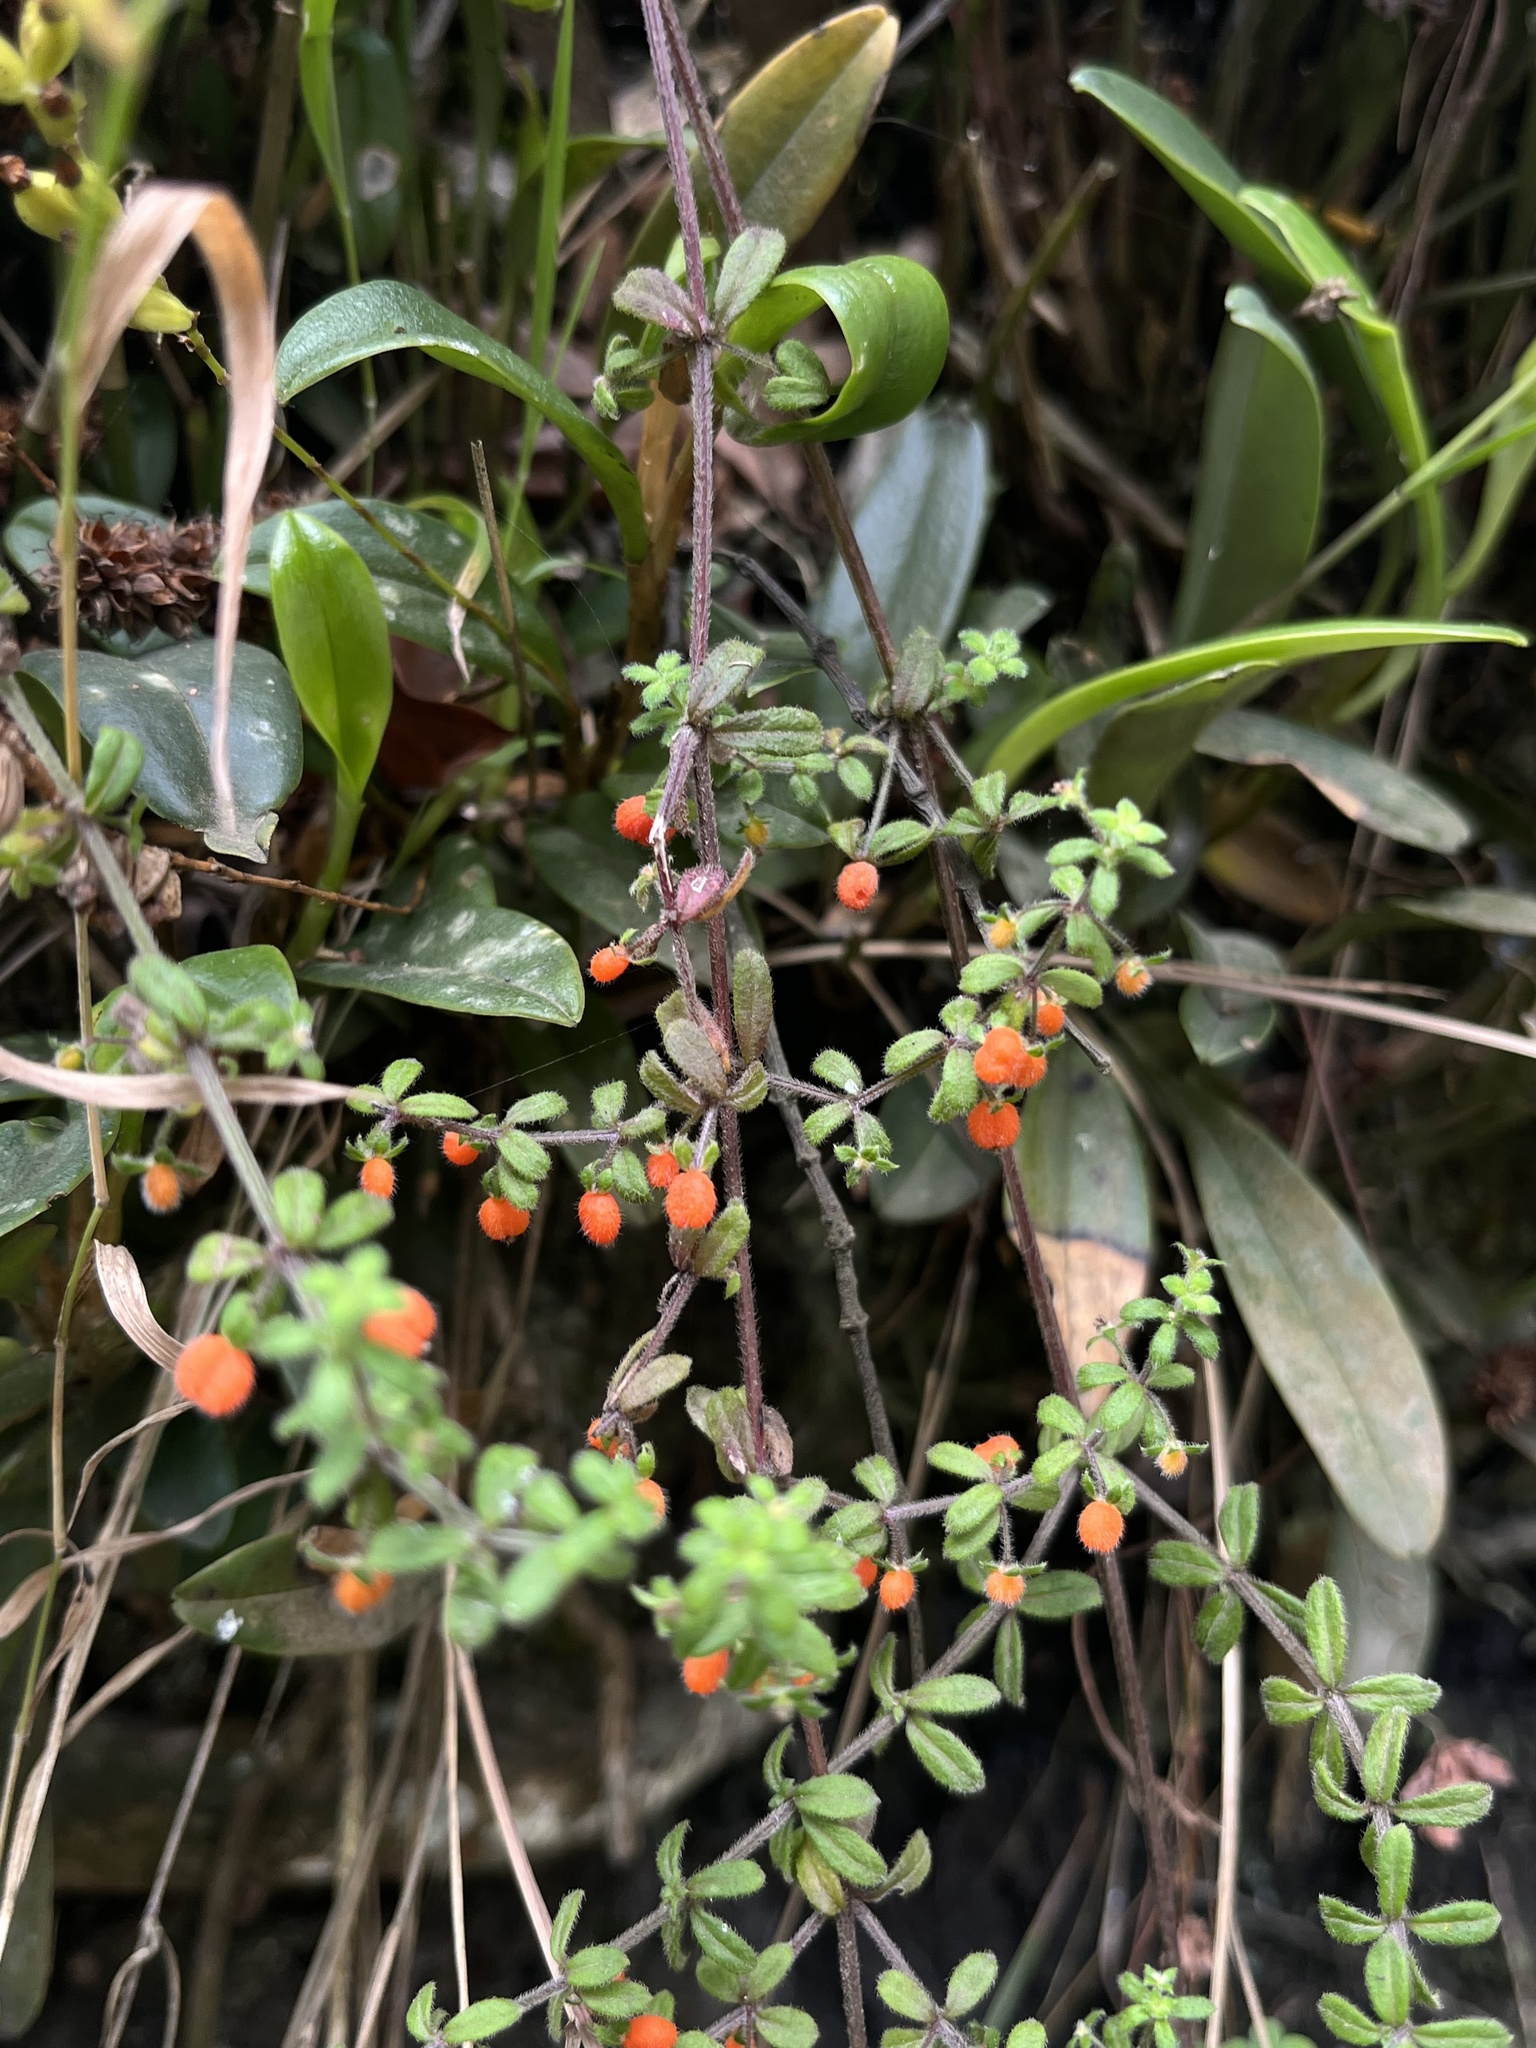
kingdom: Plantae
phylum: Tracheophyta
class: Magnoliopsida
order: Gentianales
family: Rubiaceae
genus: Galium
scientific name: Galium hypocarpium
